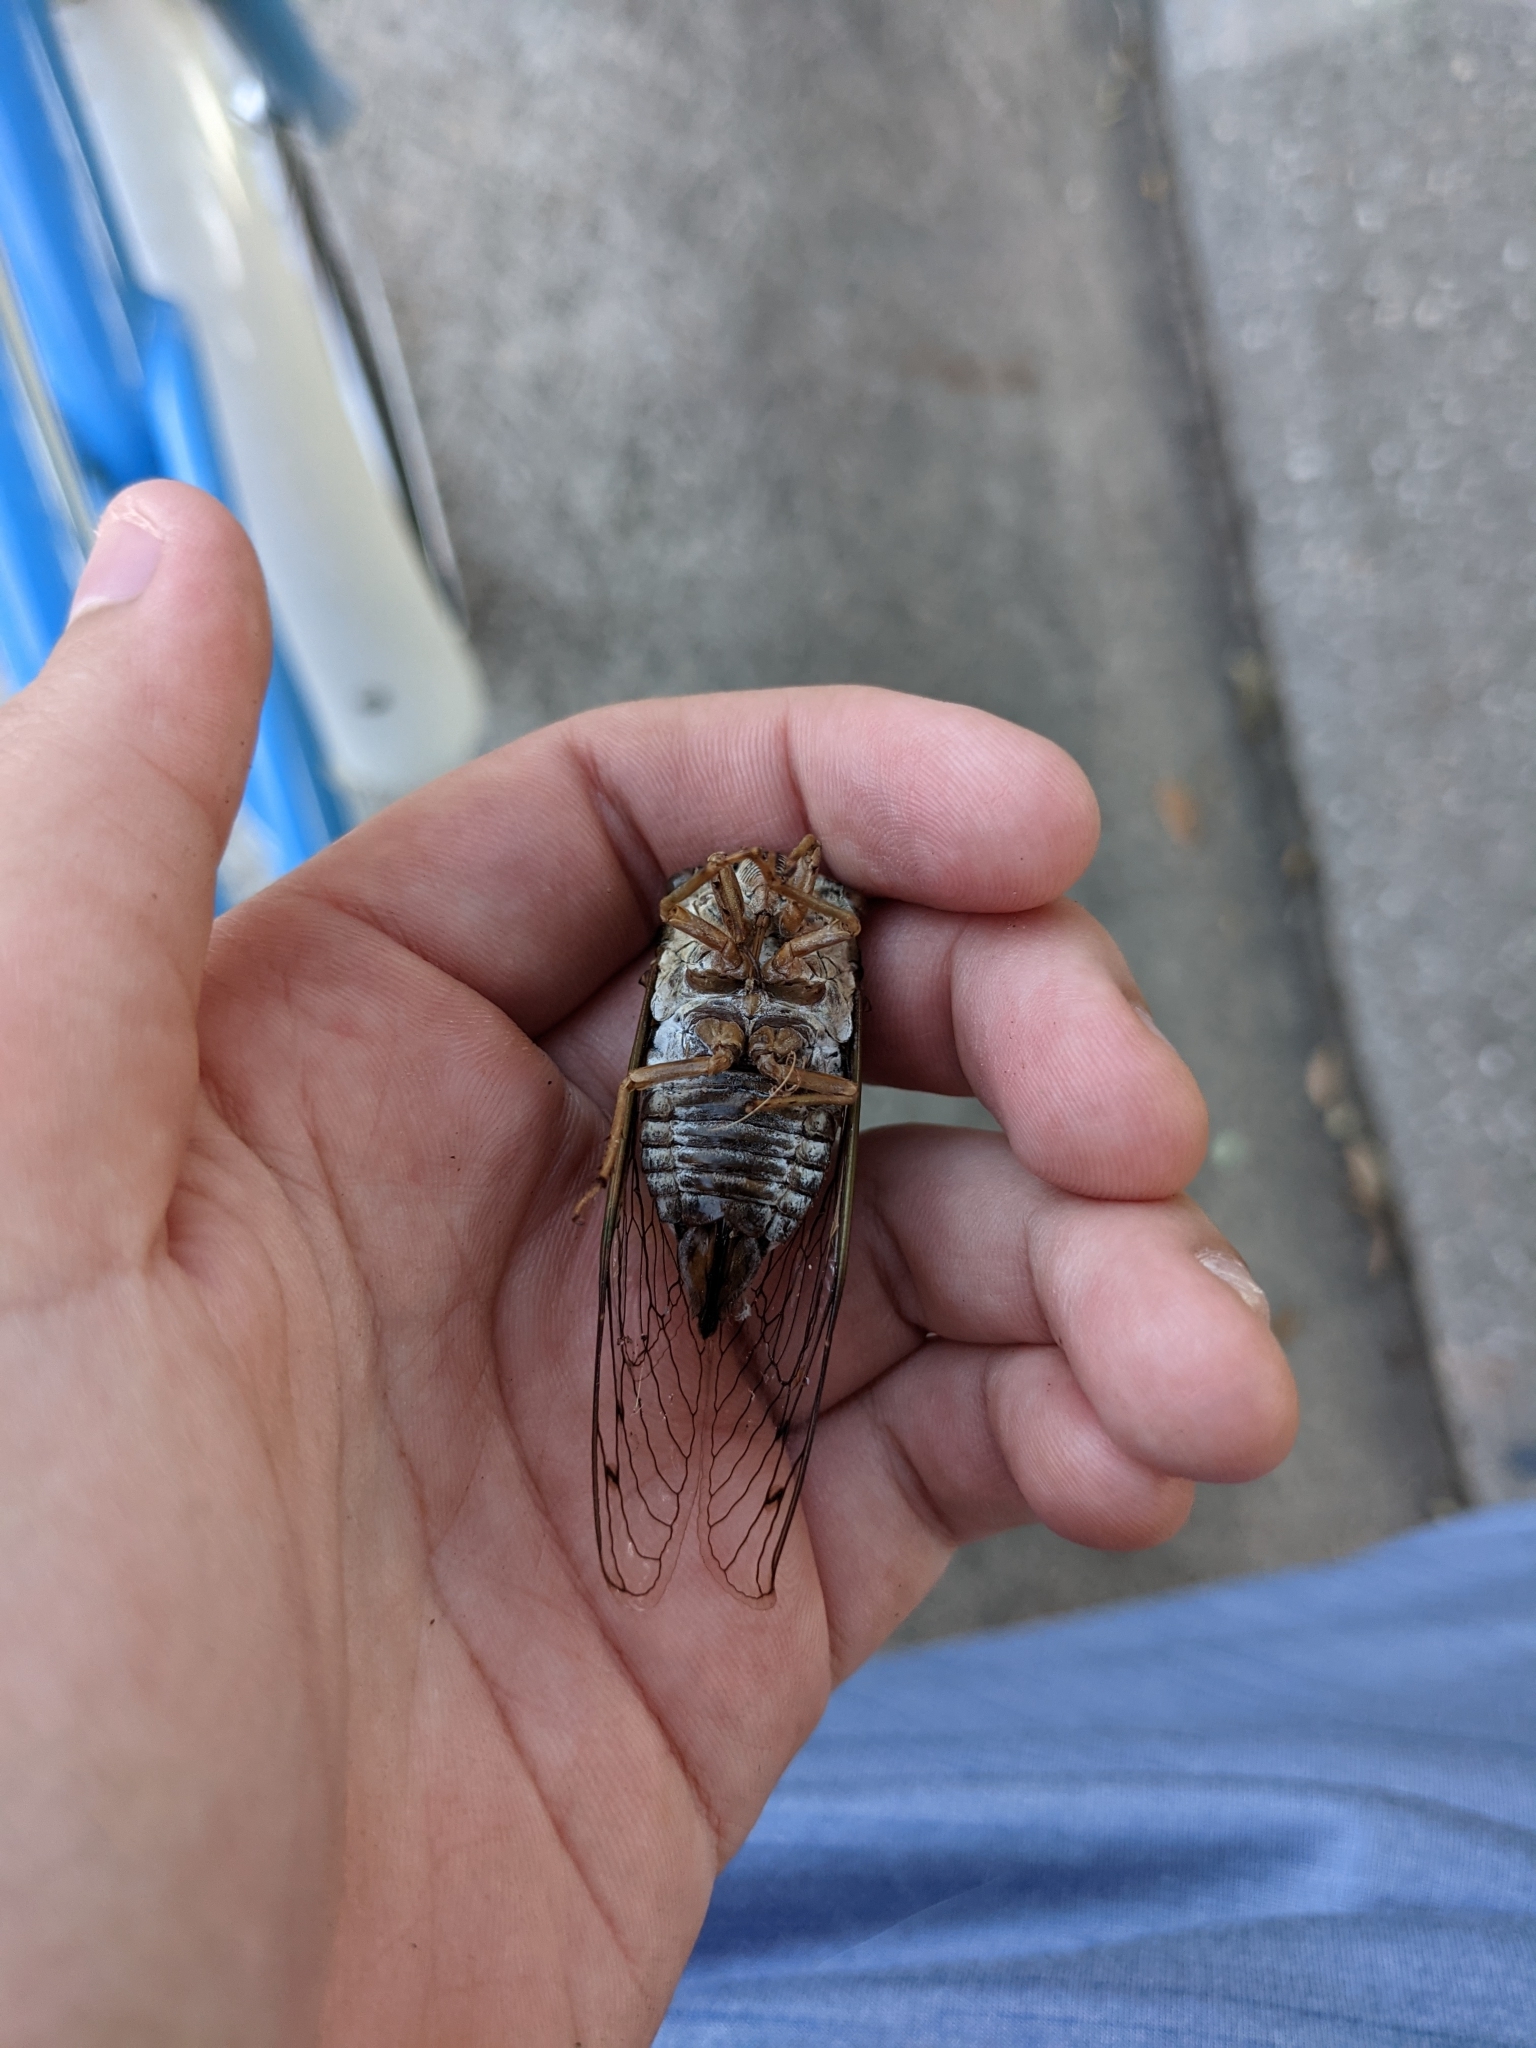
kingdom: Animalia
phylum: Arthropoda
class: Insecta
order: Hemiptera
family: Cicadidae
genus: Megatibicen
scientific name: Megatibicen resh
